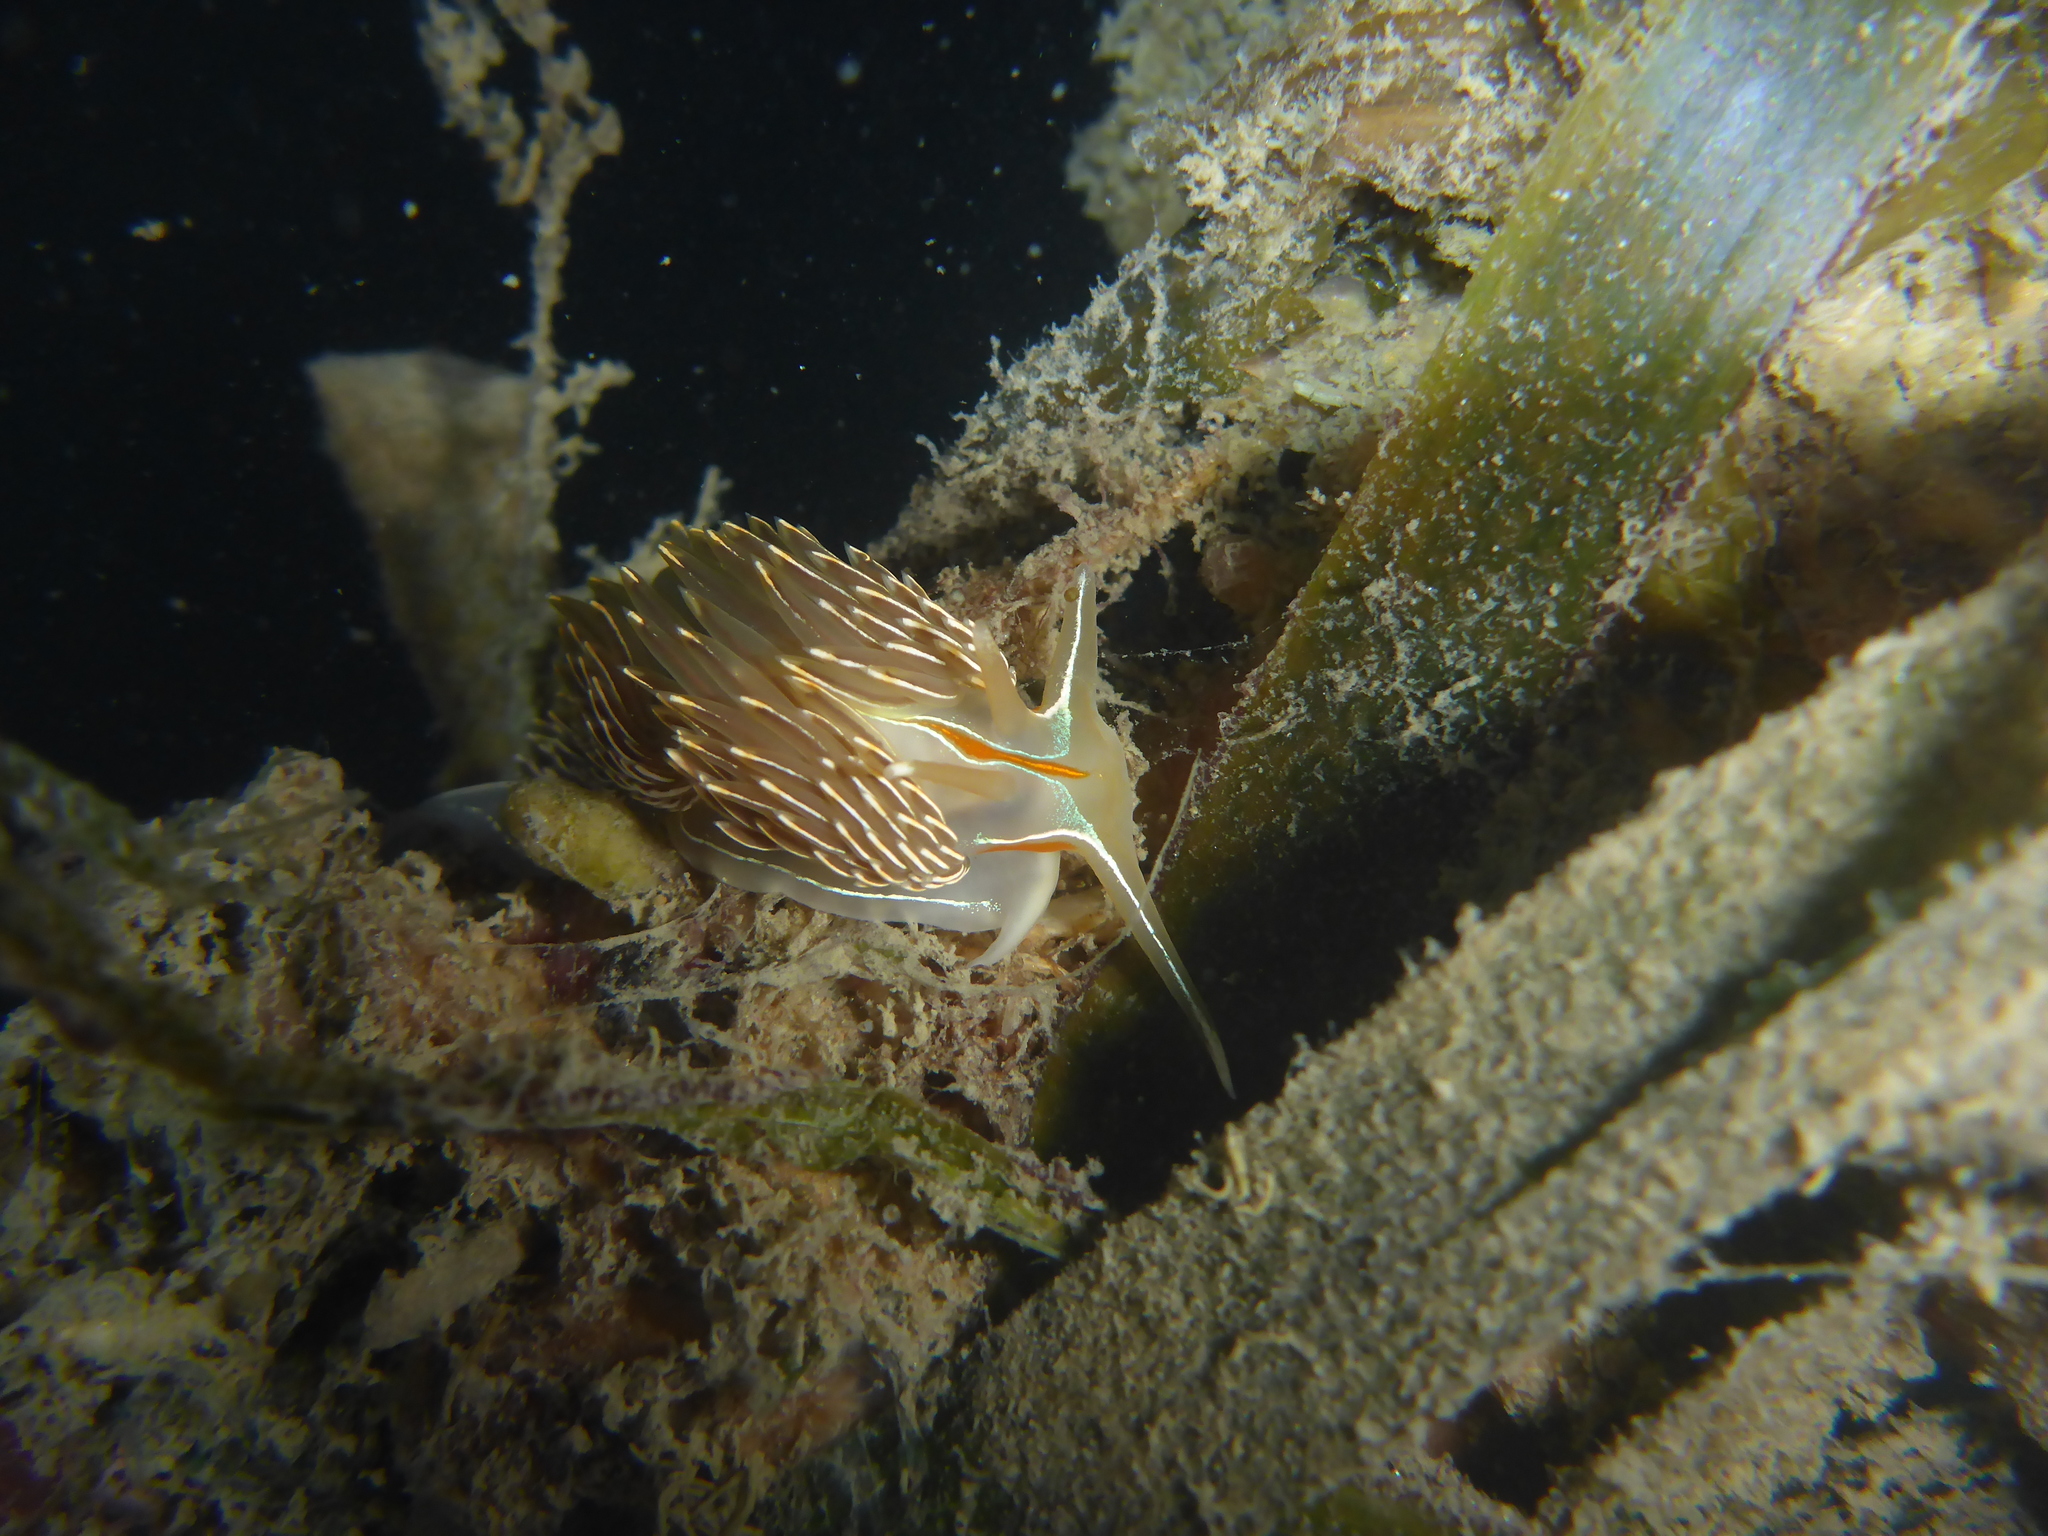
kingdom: Animalia
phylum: Mollusca
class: Gastropoda
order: Nudibranchia
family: Myrrhinidae
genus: Hermissenda
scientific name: Hermissenda crassicornis
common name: Hermissenda
